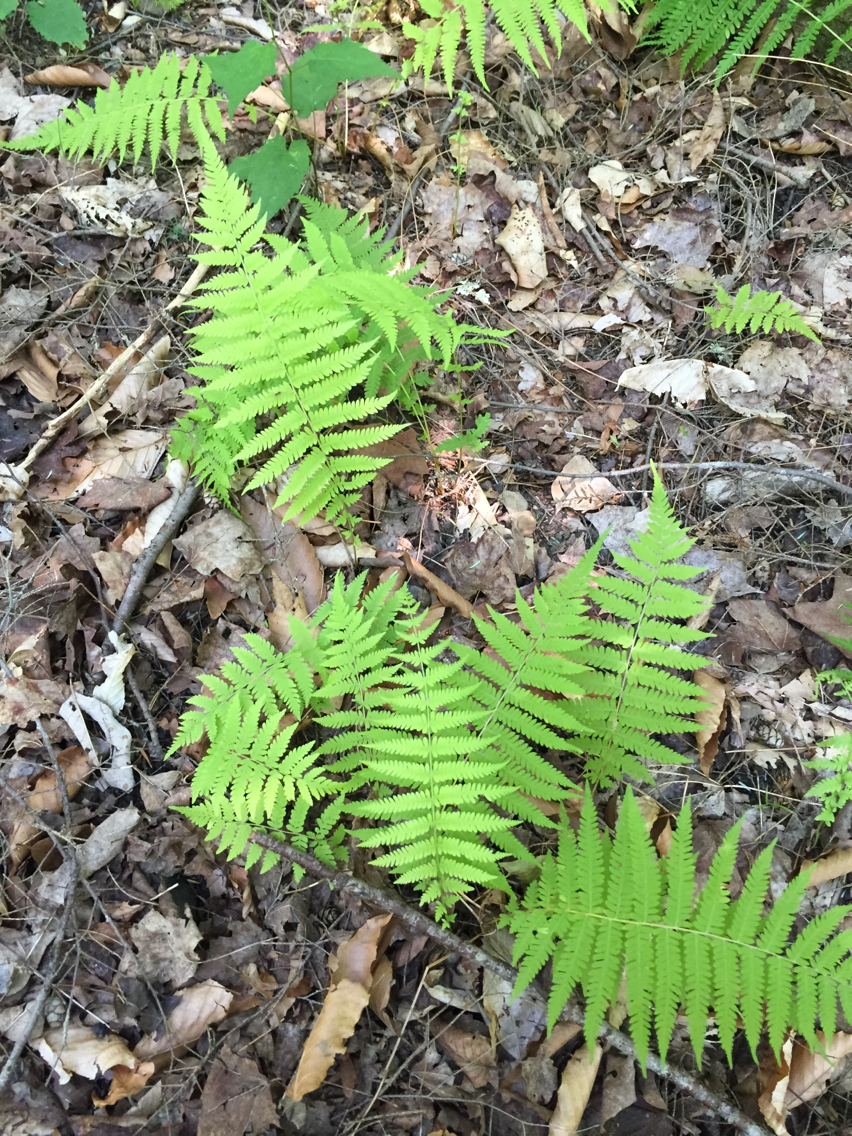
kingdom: Plantae
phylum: Tracheophyta
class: Polypodiopsida
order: Polypodiales
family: Thelypteridaceae
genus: Amauropelta
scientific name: Amauropelta noveboracensis
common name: New york fern
